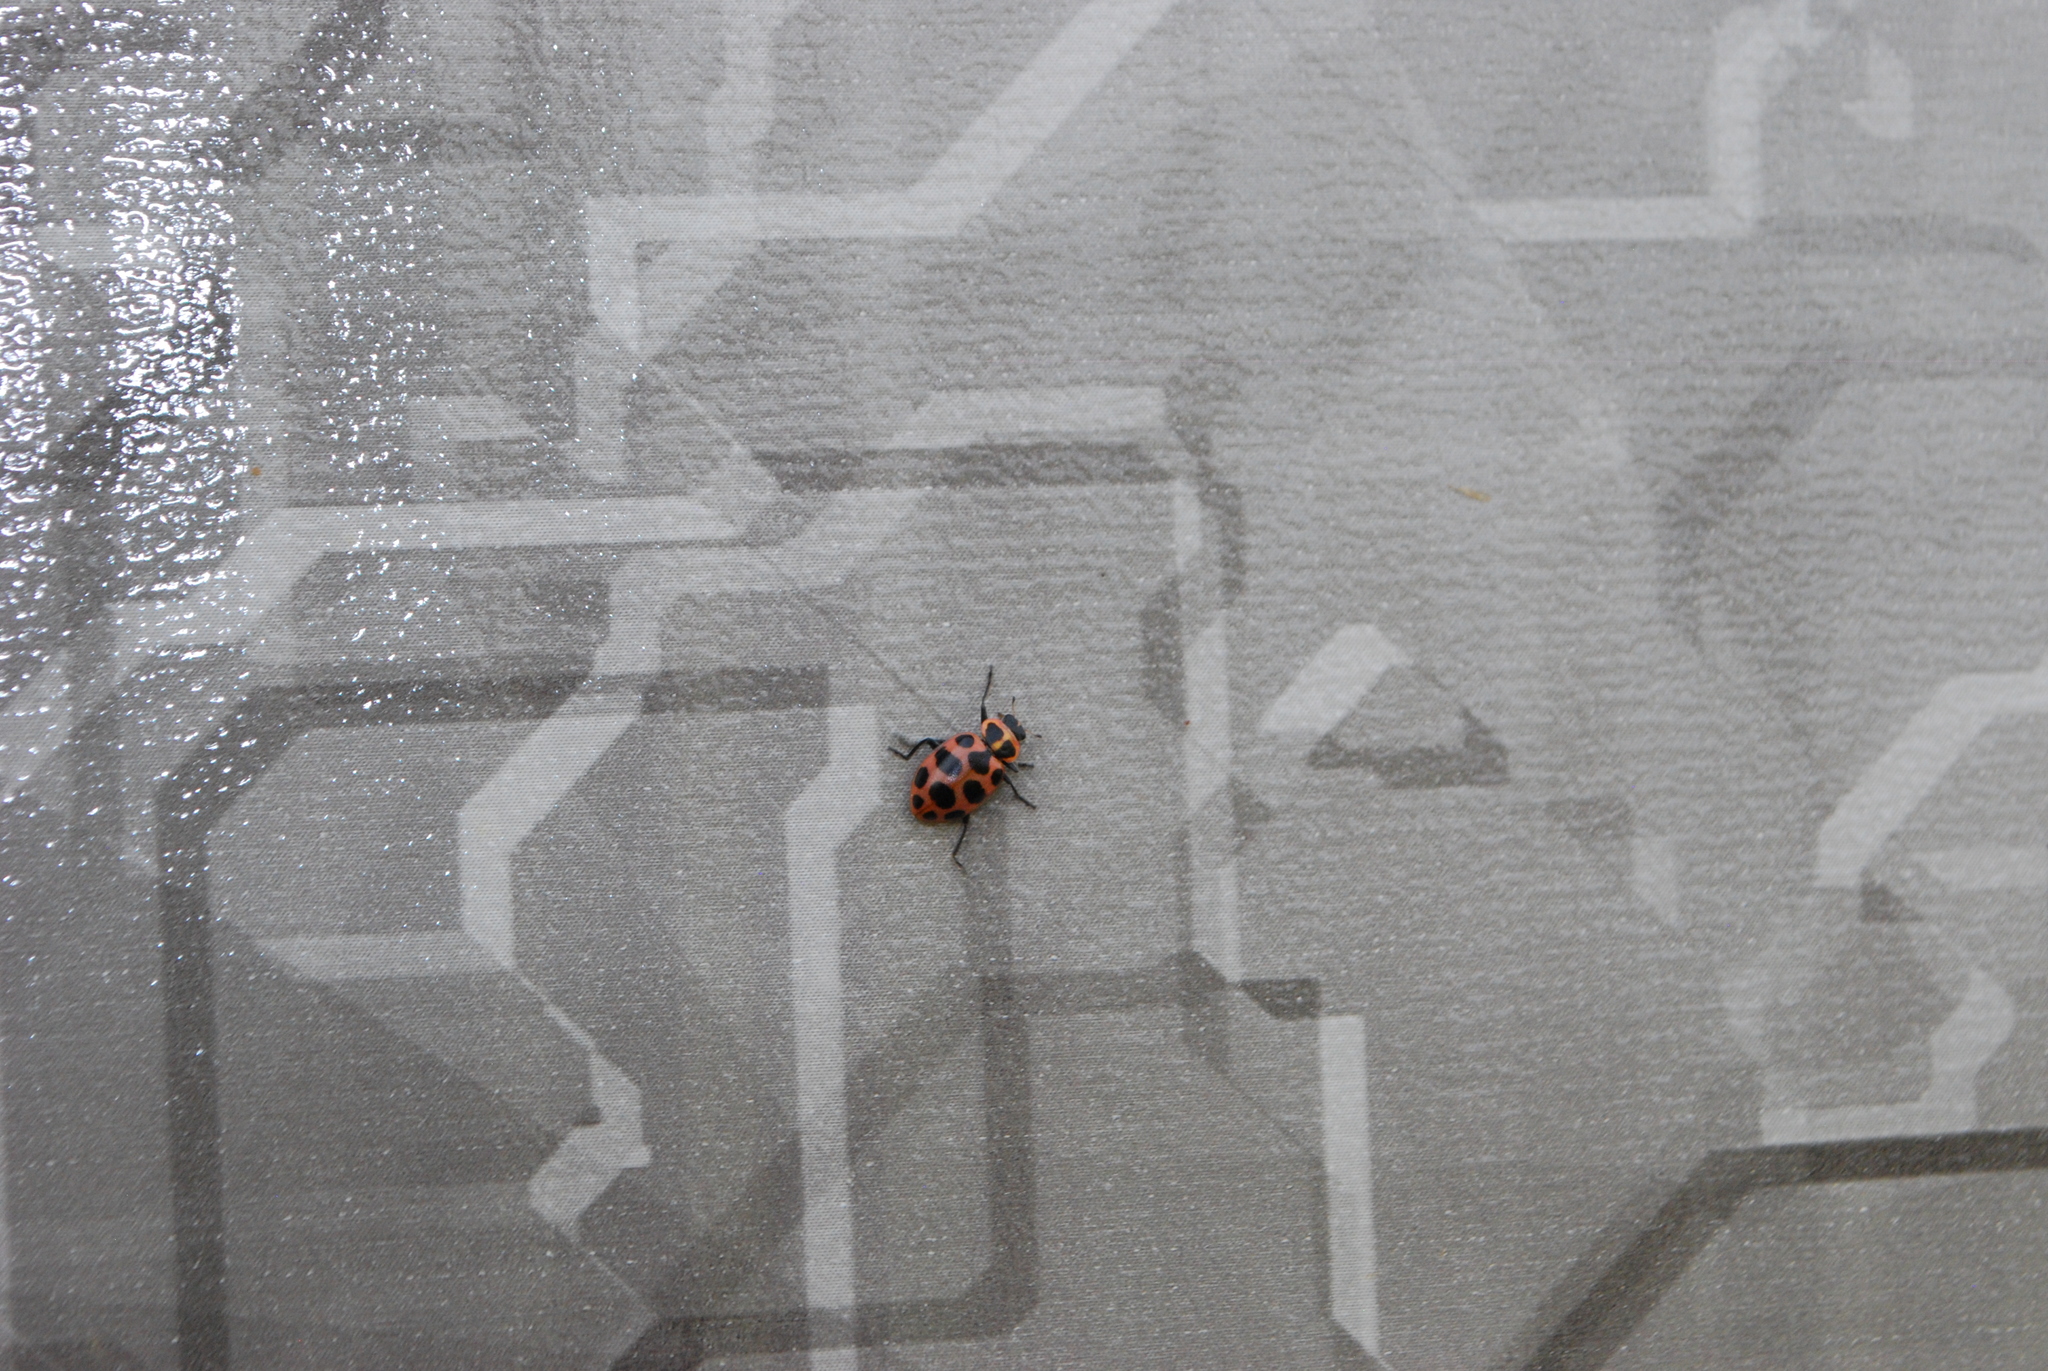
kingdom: Animalia
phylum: Arthropoda
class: Insecta
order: Coleoptera
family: Coccinellidae
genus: Coleomegilla
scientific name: Coleomegilla maculata
